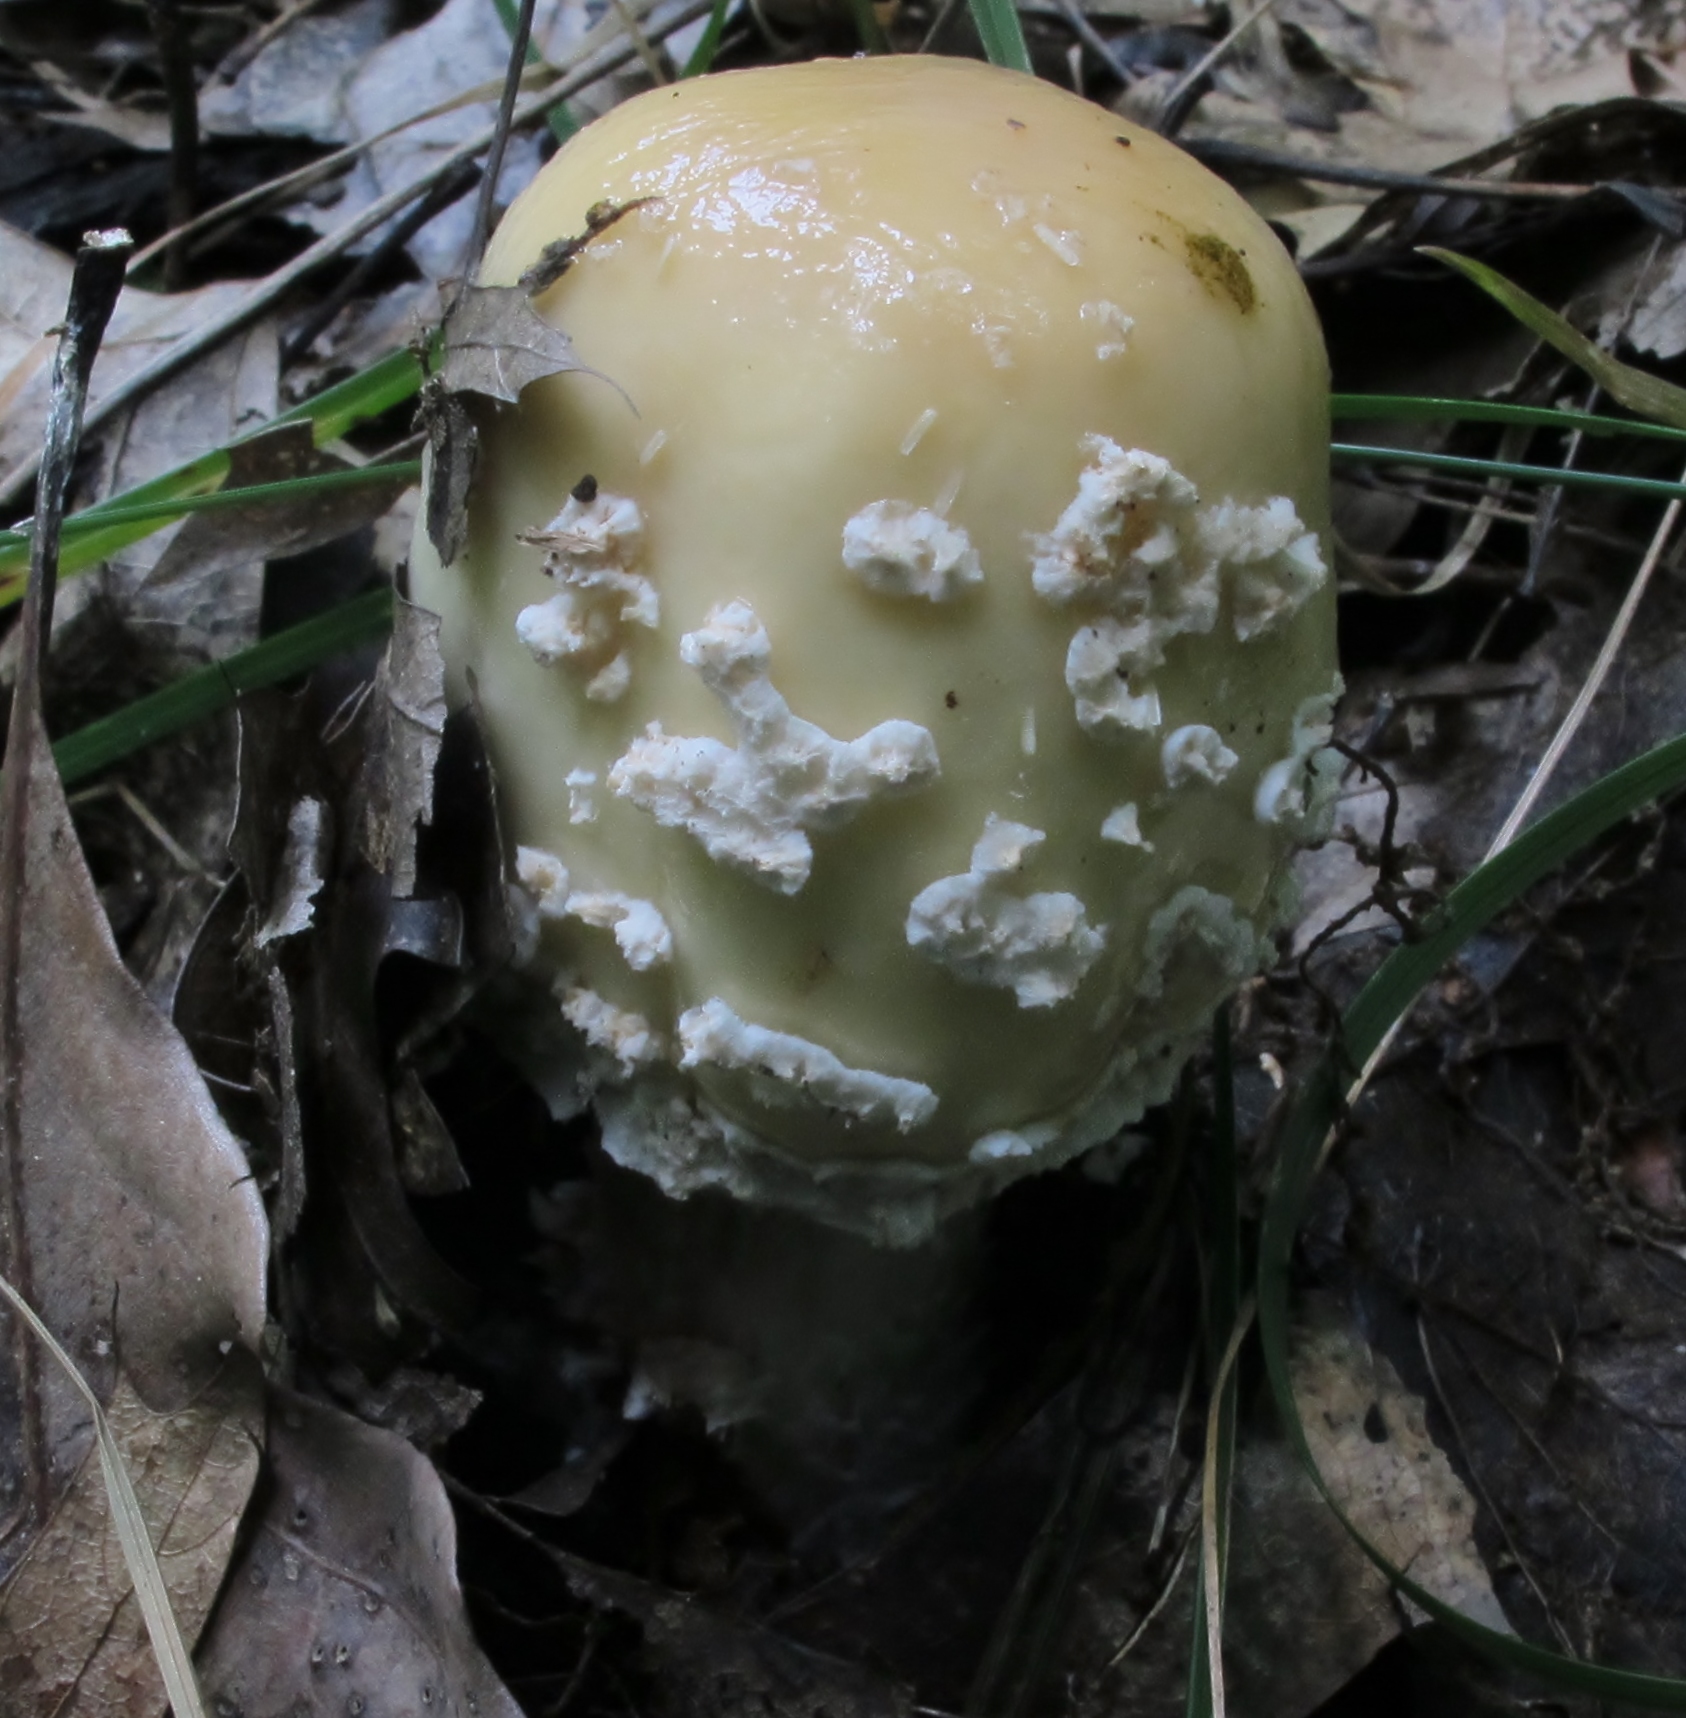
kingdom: Fungi
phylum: Basidiomycota
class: Agaricomycetes
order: Agaricales
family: Amanitaceae
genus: Amanita
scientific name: Amanita velatipes
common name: Great funnel-veil amanita
